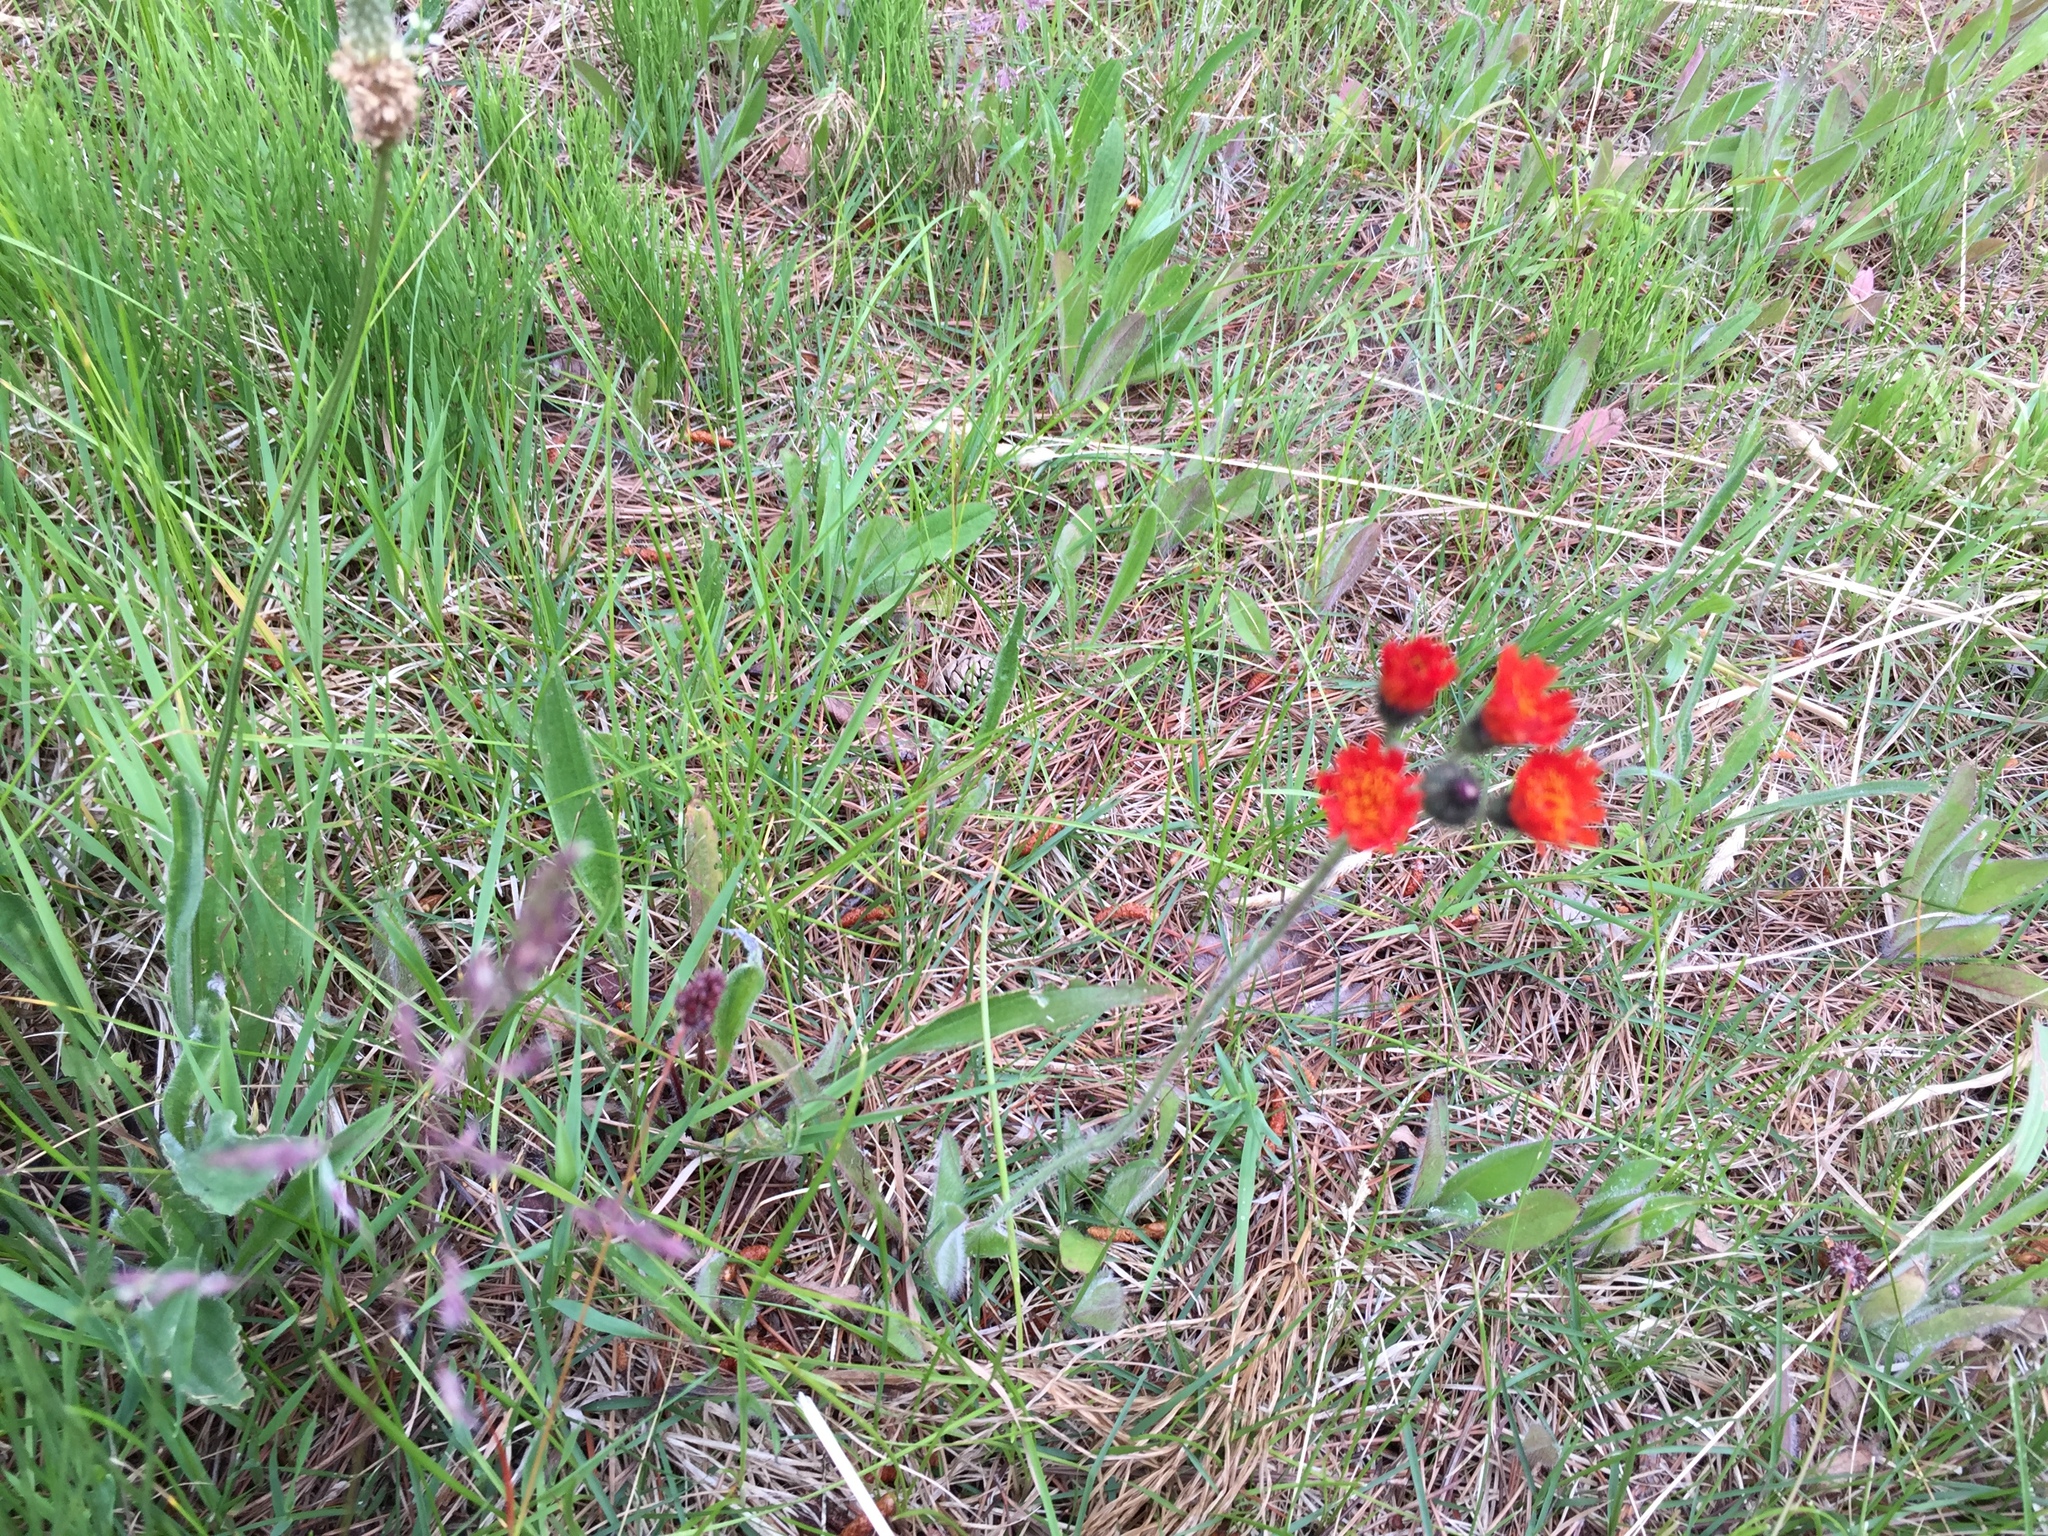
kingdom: Plantae
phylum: Tracheophyta
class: Magnoliopsida
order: Asterales
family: Asteraceae
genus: Pilosella
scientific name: Pilosella aurantiaca
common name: Fox-and-cubs
